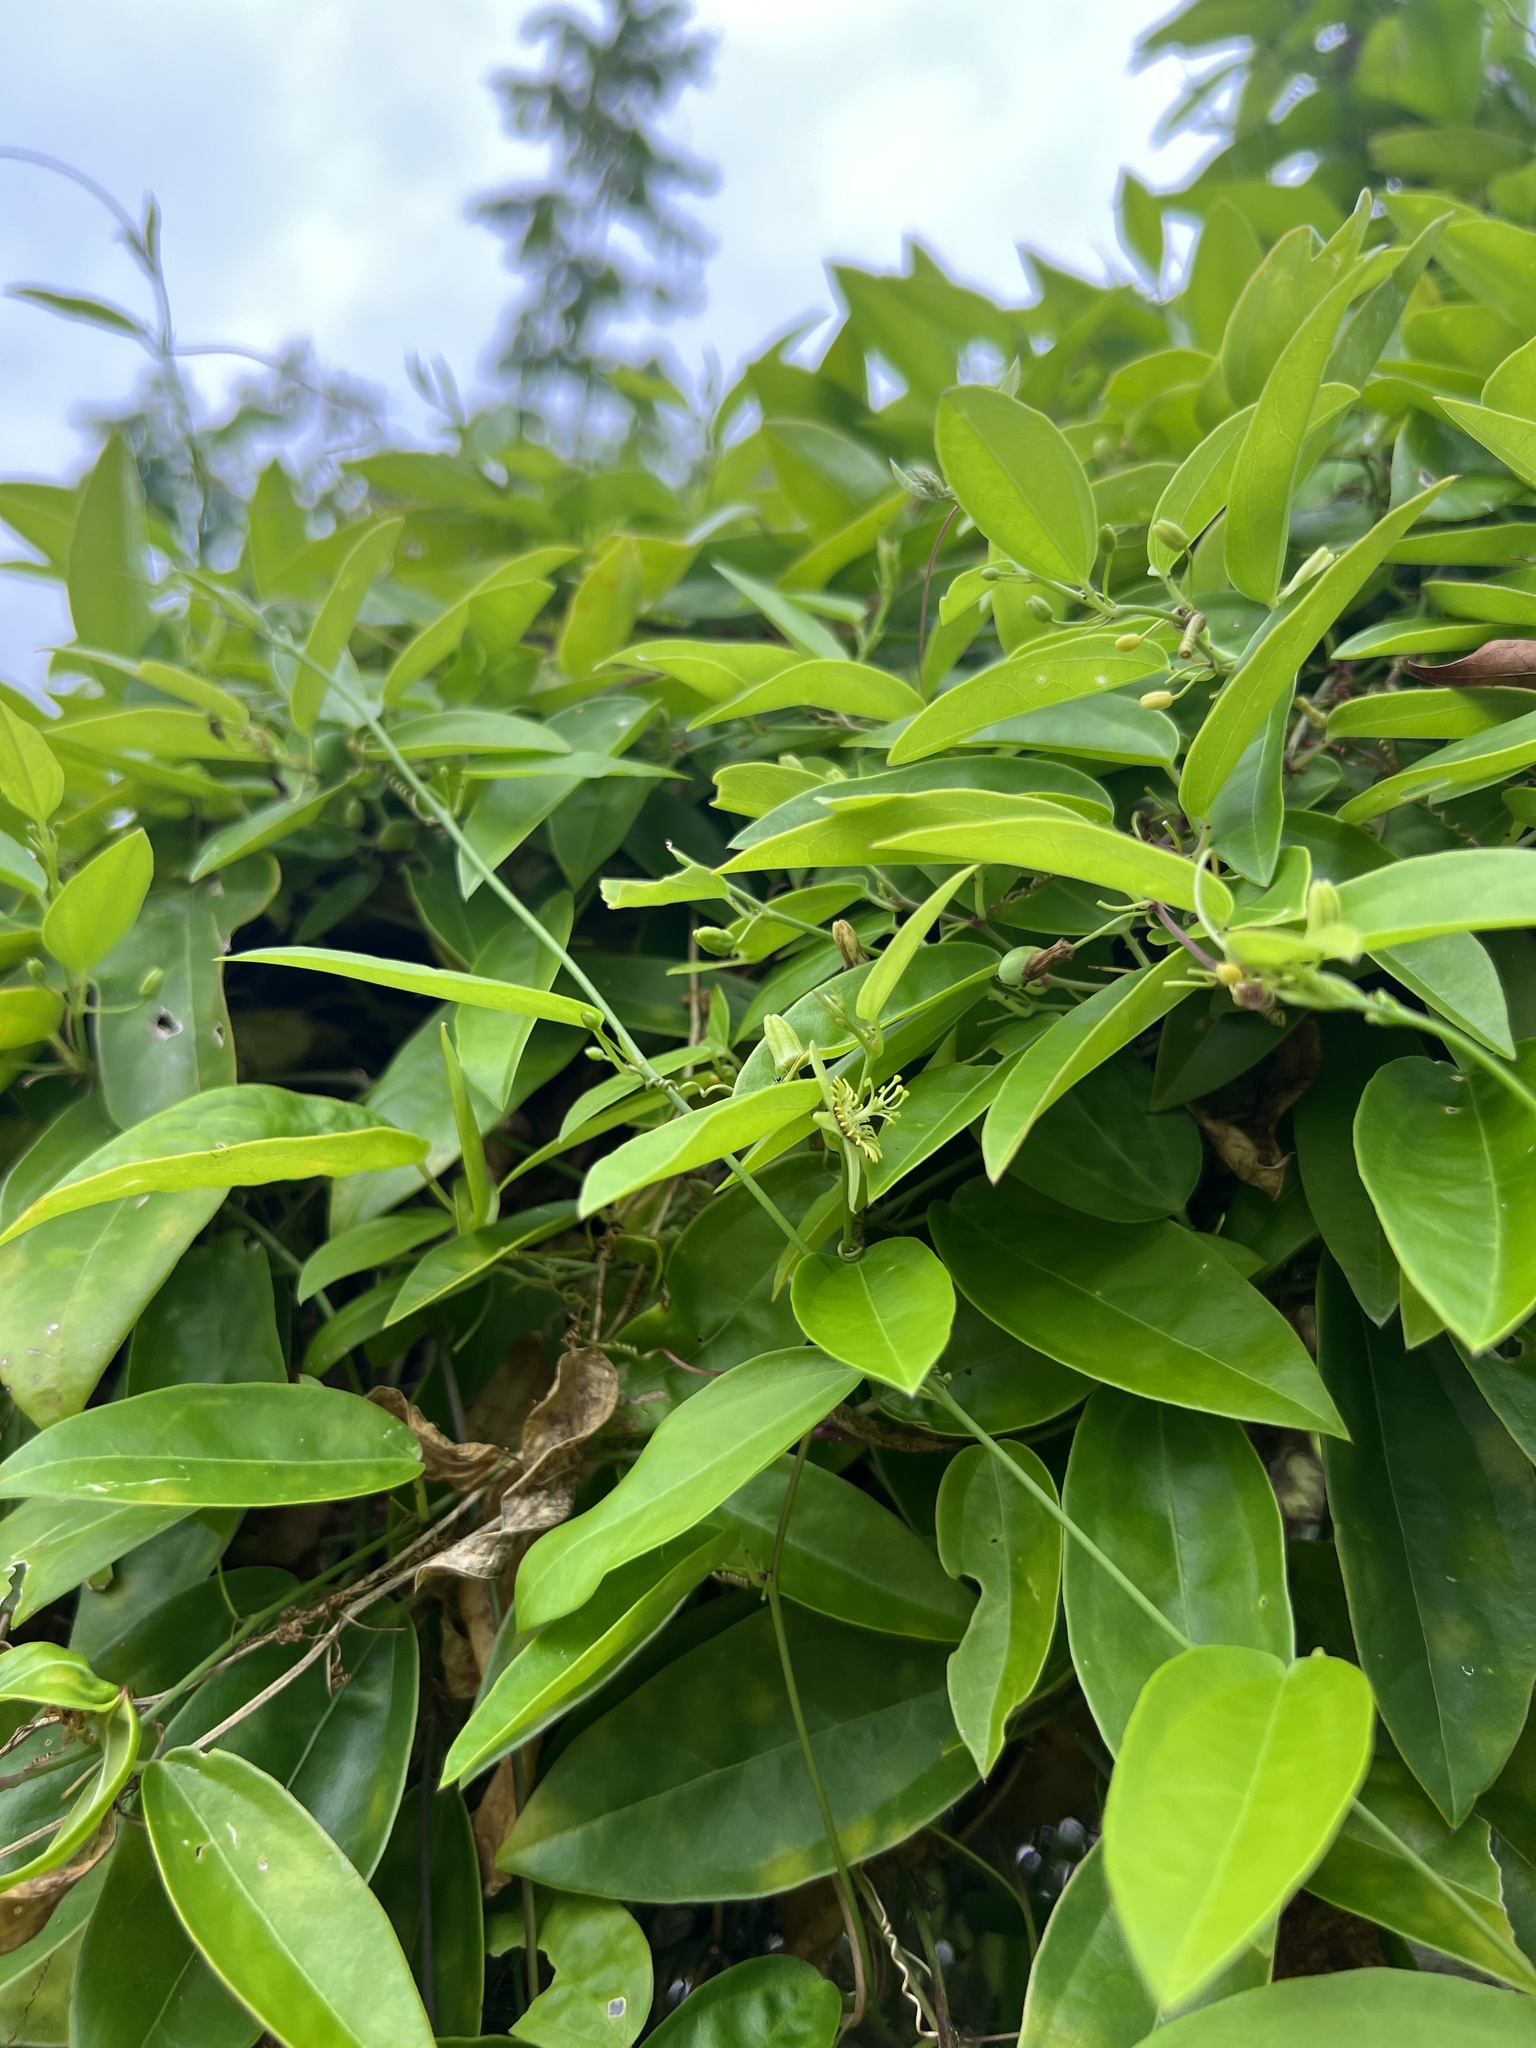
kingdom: Plantae
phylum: Tracheophyta
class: Magnoliopsida
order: Malpighiales
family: Passifloraceae
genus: Passiflora
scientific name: Passiflora pallida
